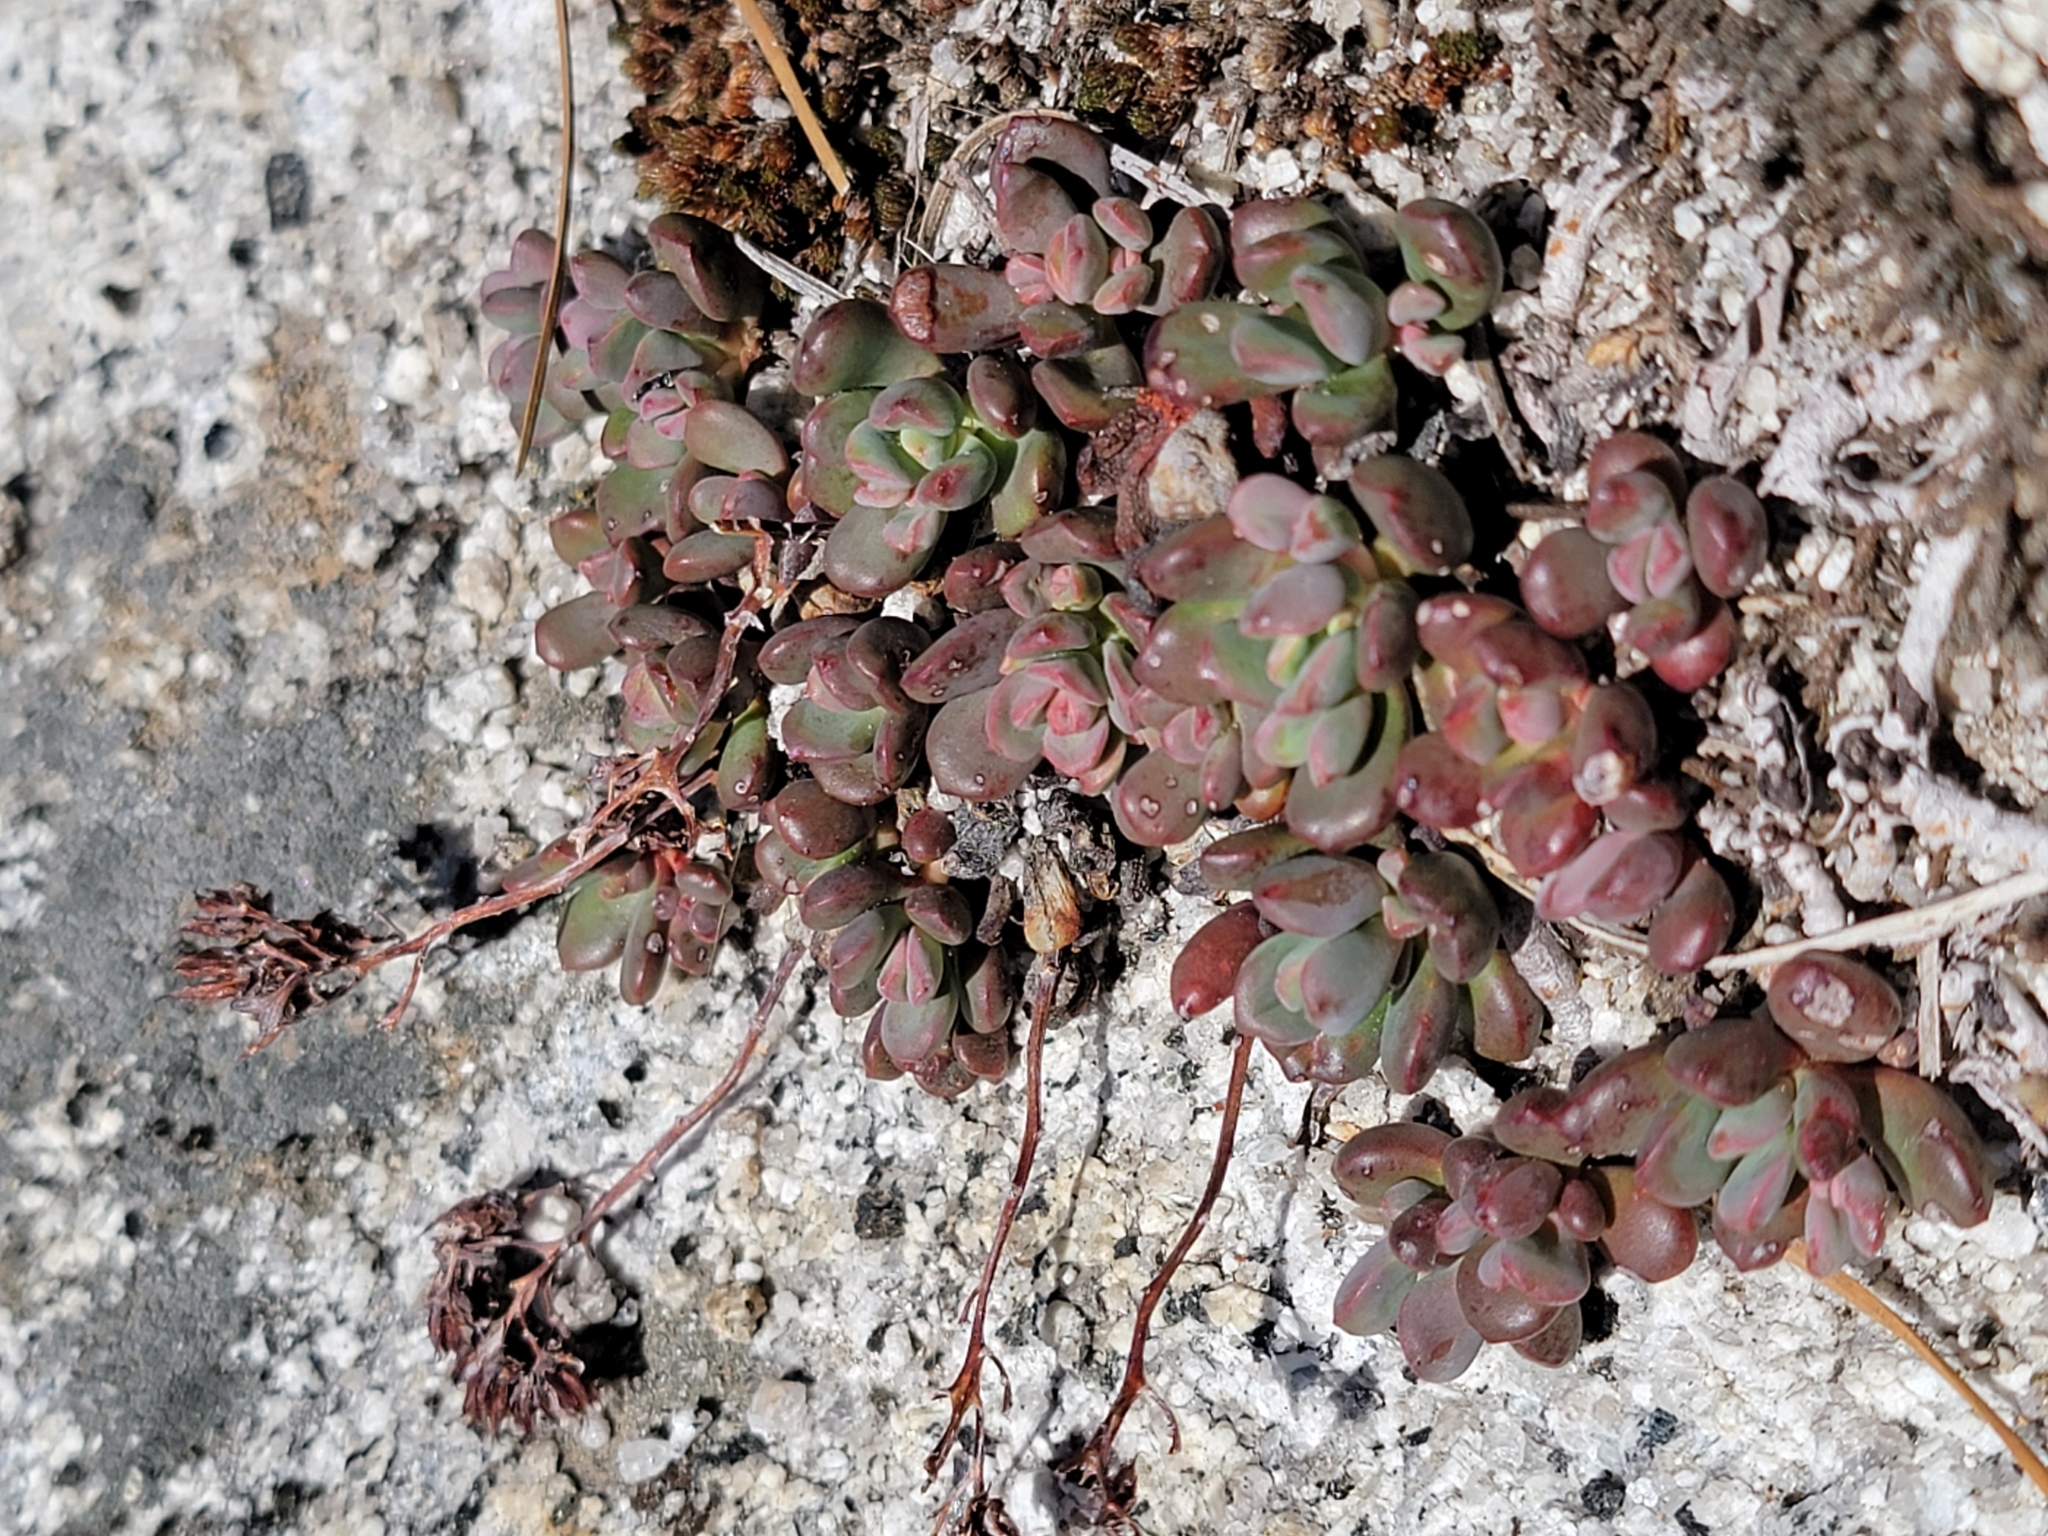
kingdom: Plantae
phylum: Tracheophyta
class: Magnoliopsida
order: Saxifragales
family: Crassulaceae
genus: Sedum
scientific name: Sedum obtusatum
